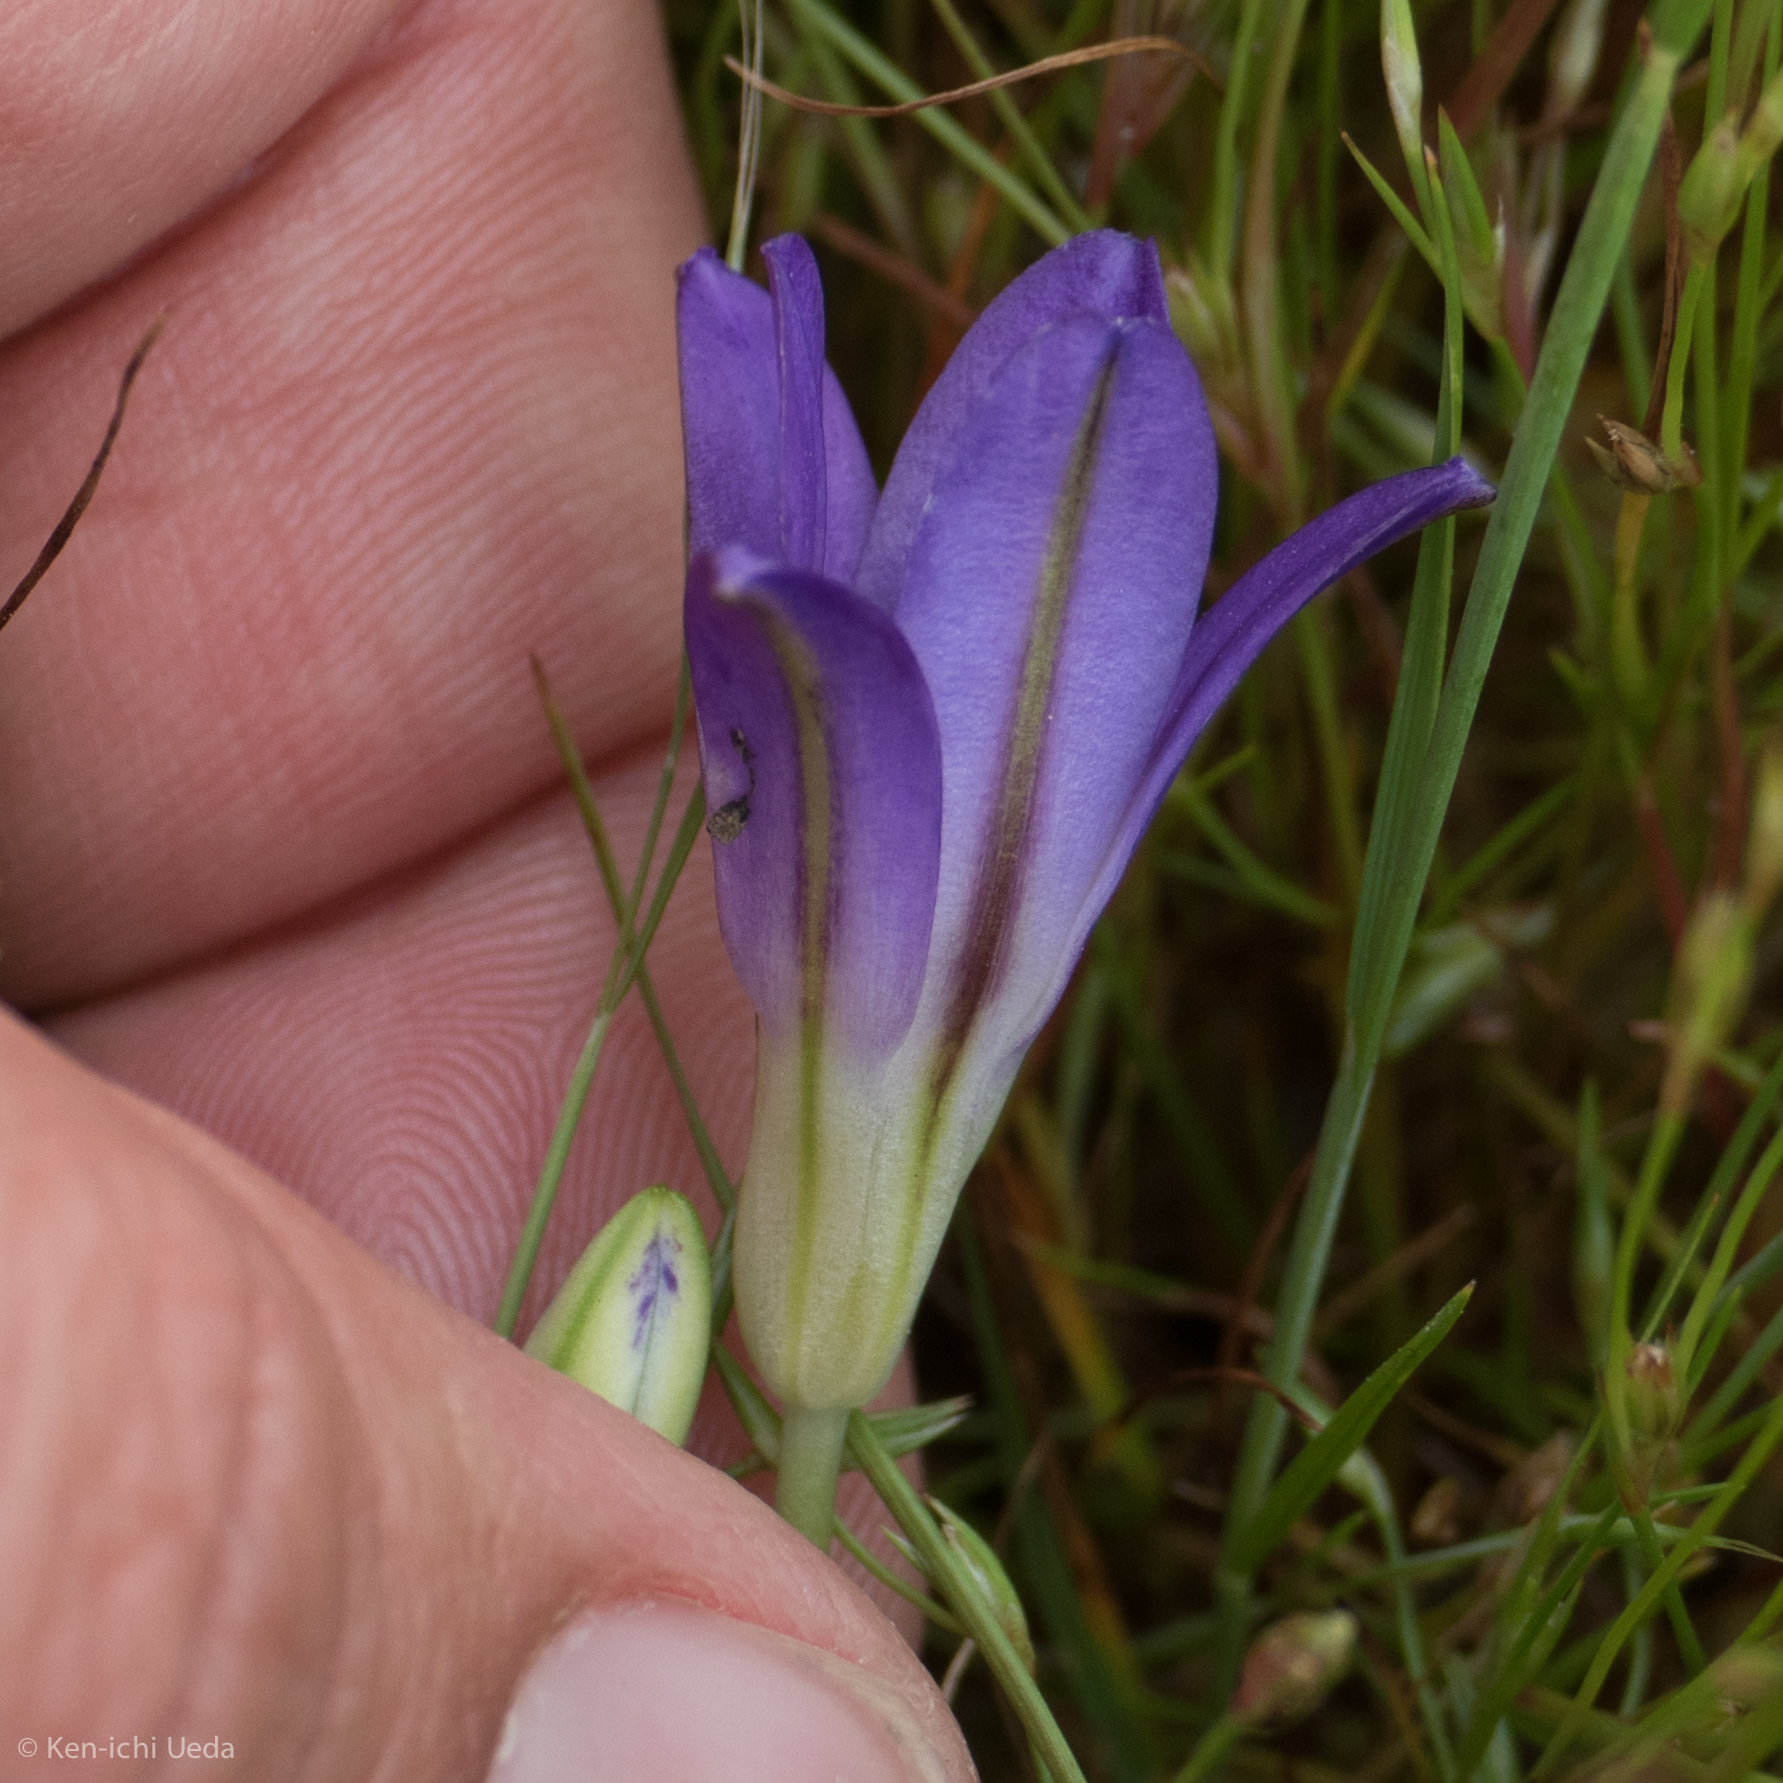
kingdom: Plantae
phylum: Tracheophyta
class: Liliopsida
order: Asparagales
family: Asparagaceae
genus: Brodiaea
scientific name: Brodiaea terrestris
